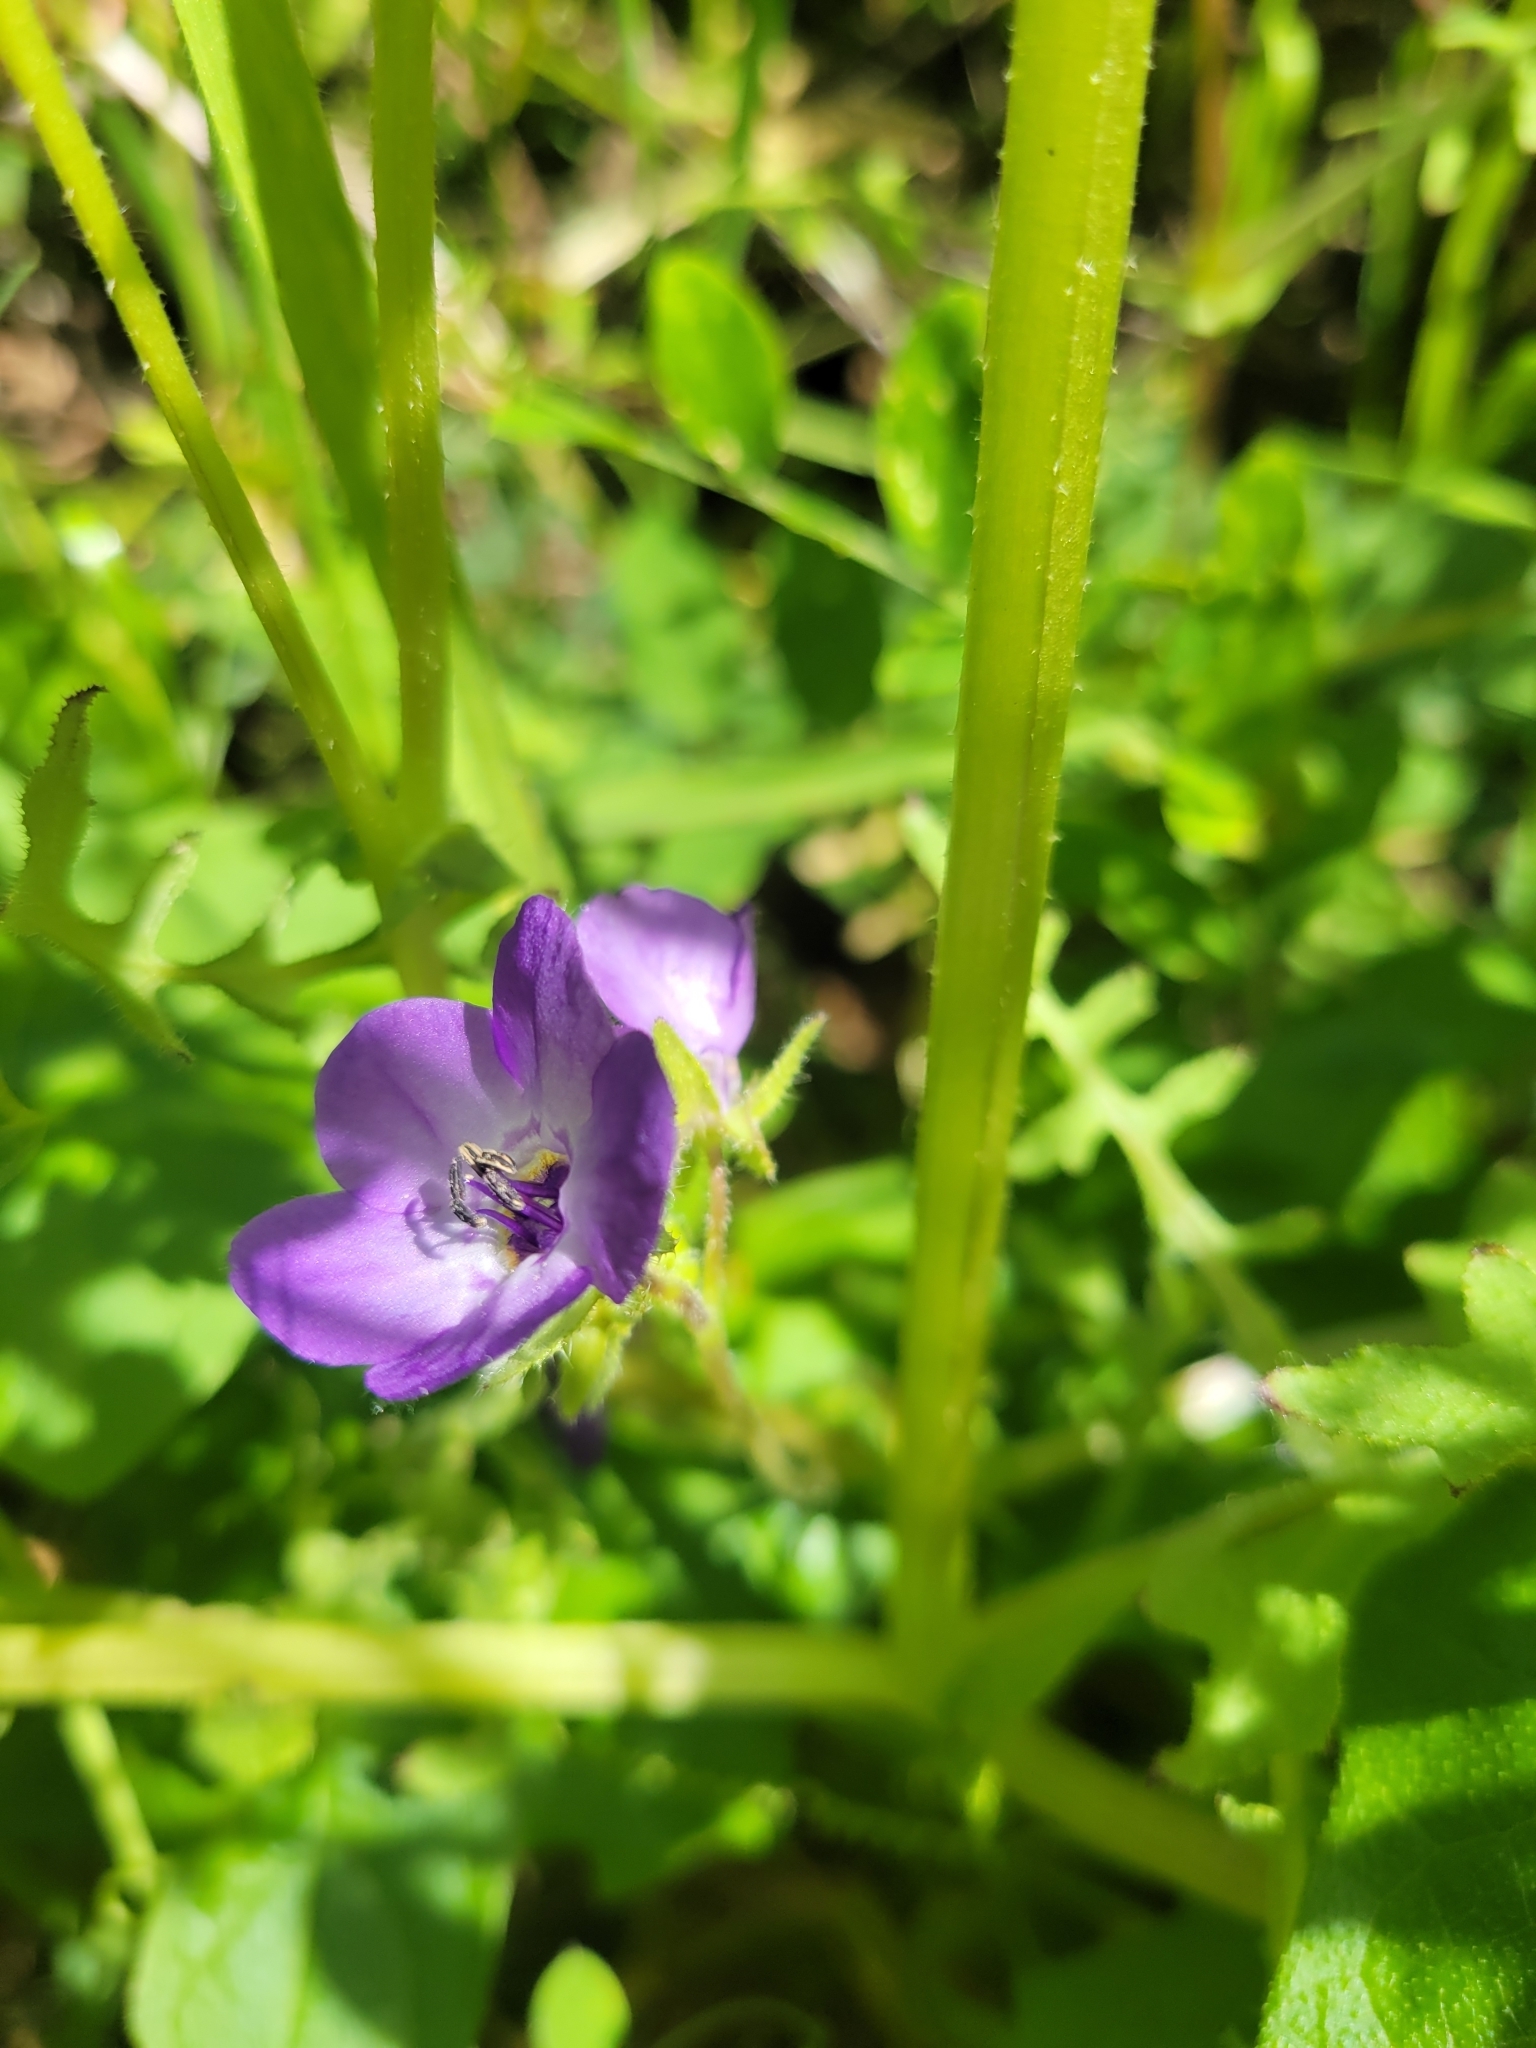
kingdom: Plantae
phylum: Tracheophyta
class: Magnoliopsida
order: Boraginales
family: Hydrophyllaceae
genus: Pholistoma
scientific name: Pholistoma auritum
